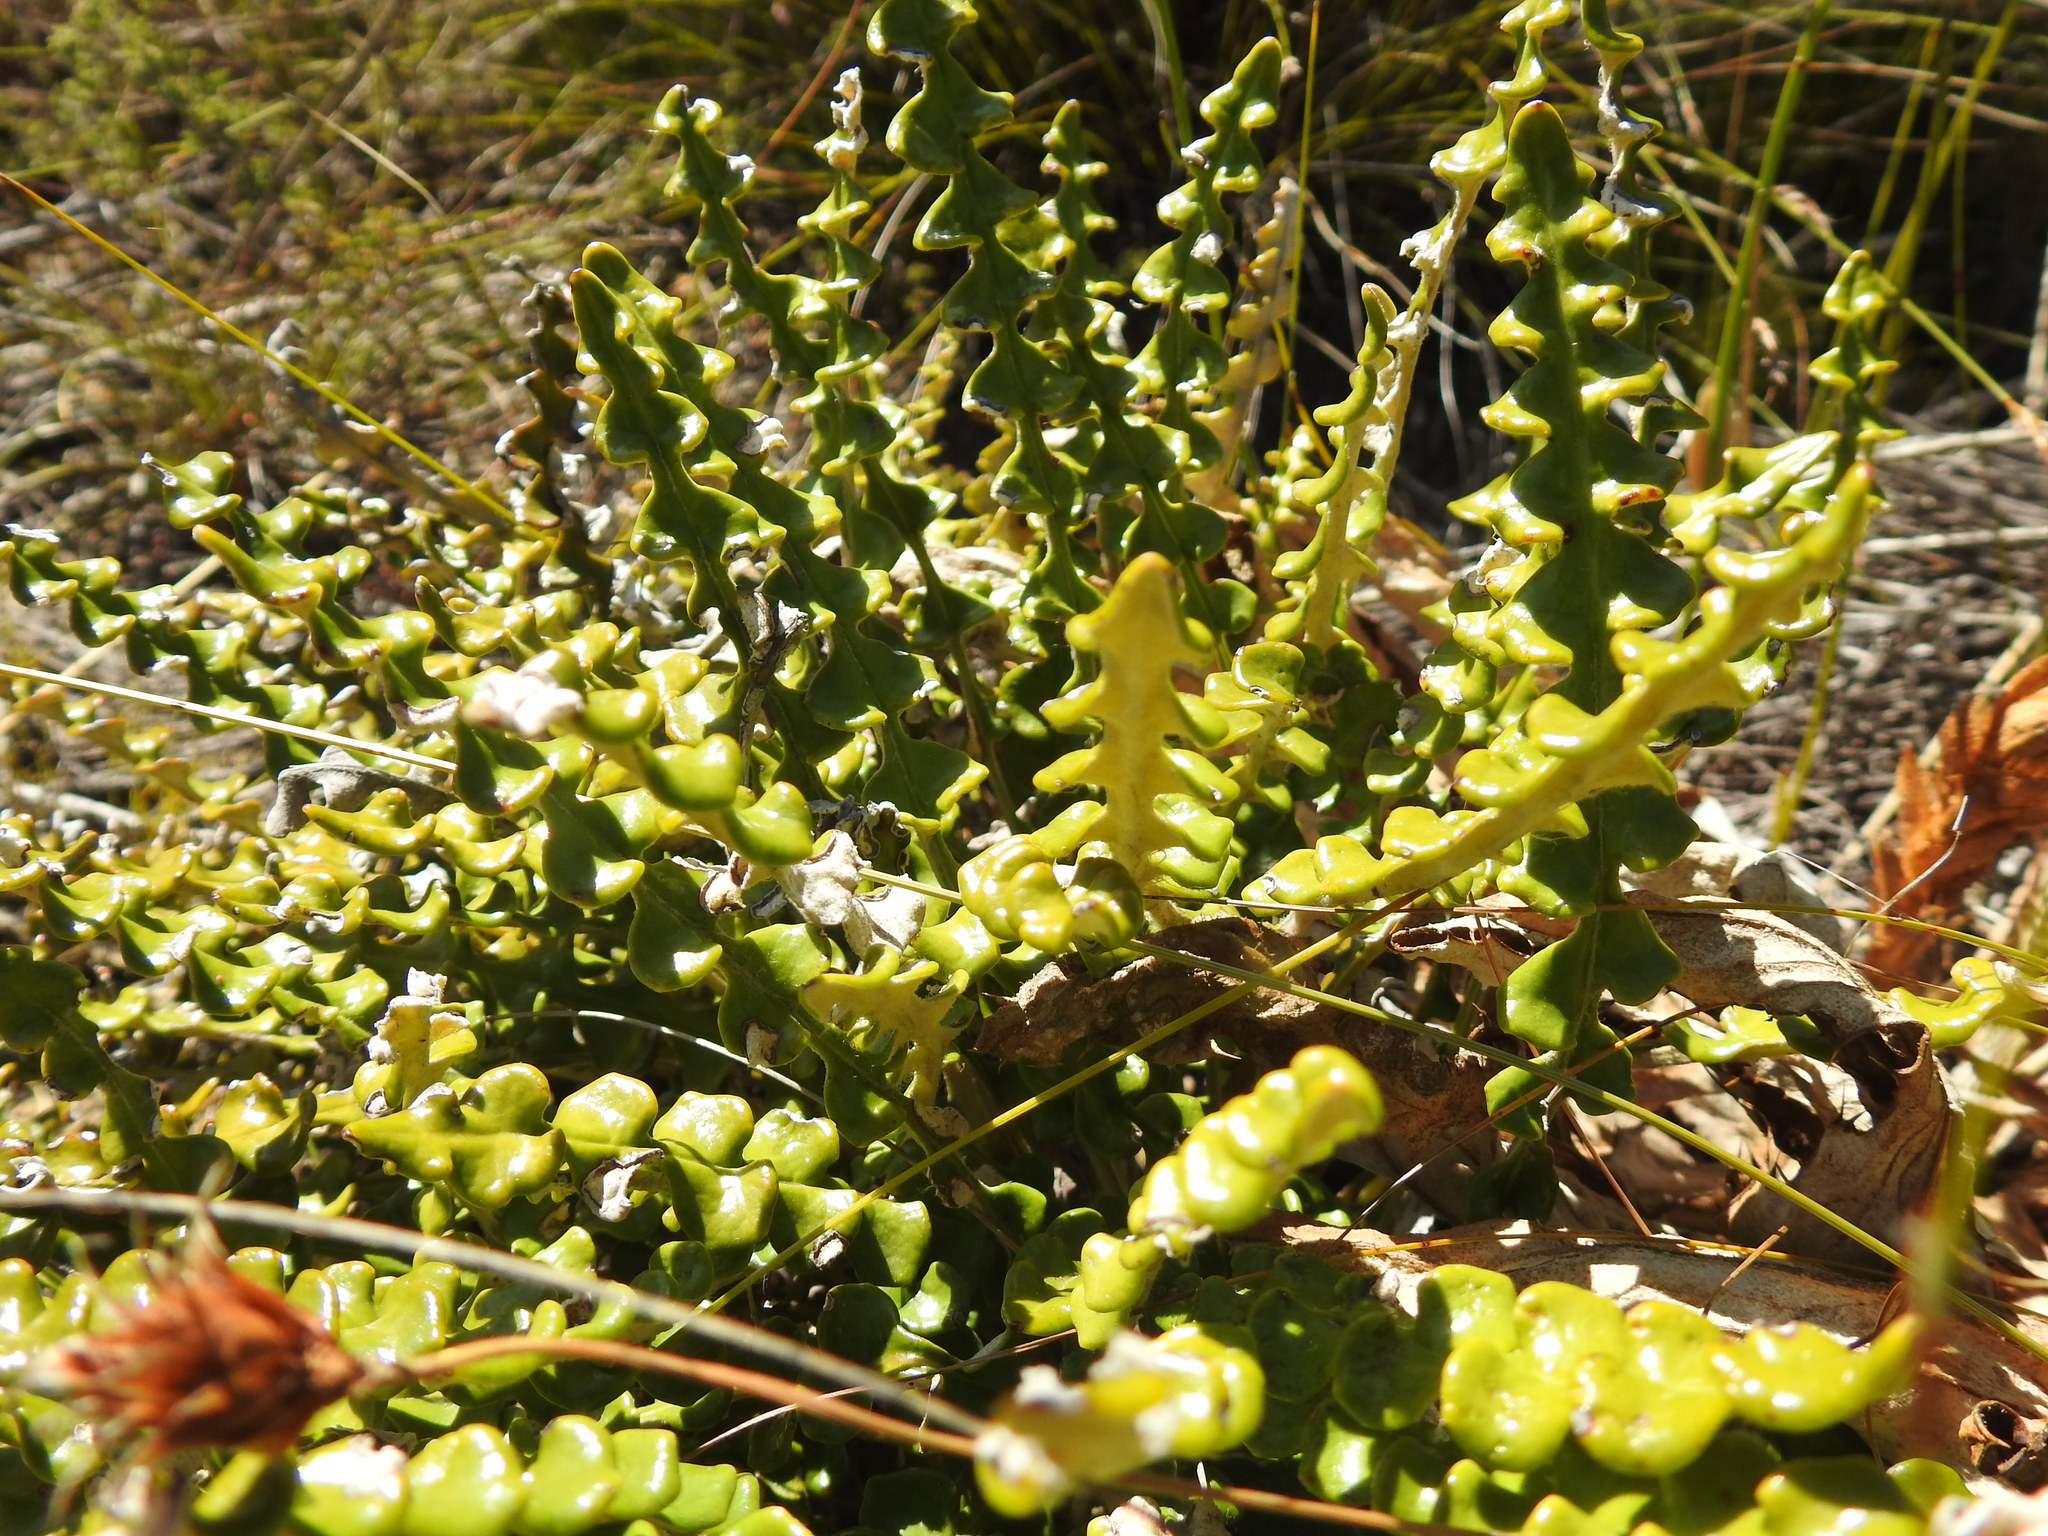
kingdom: Plantae
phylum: Tracheophyta
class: Magnoliopsida
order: Asterales
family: Asteraceae
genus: Gerbera
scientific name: Gerbera linnaei
